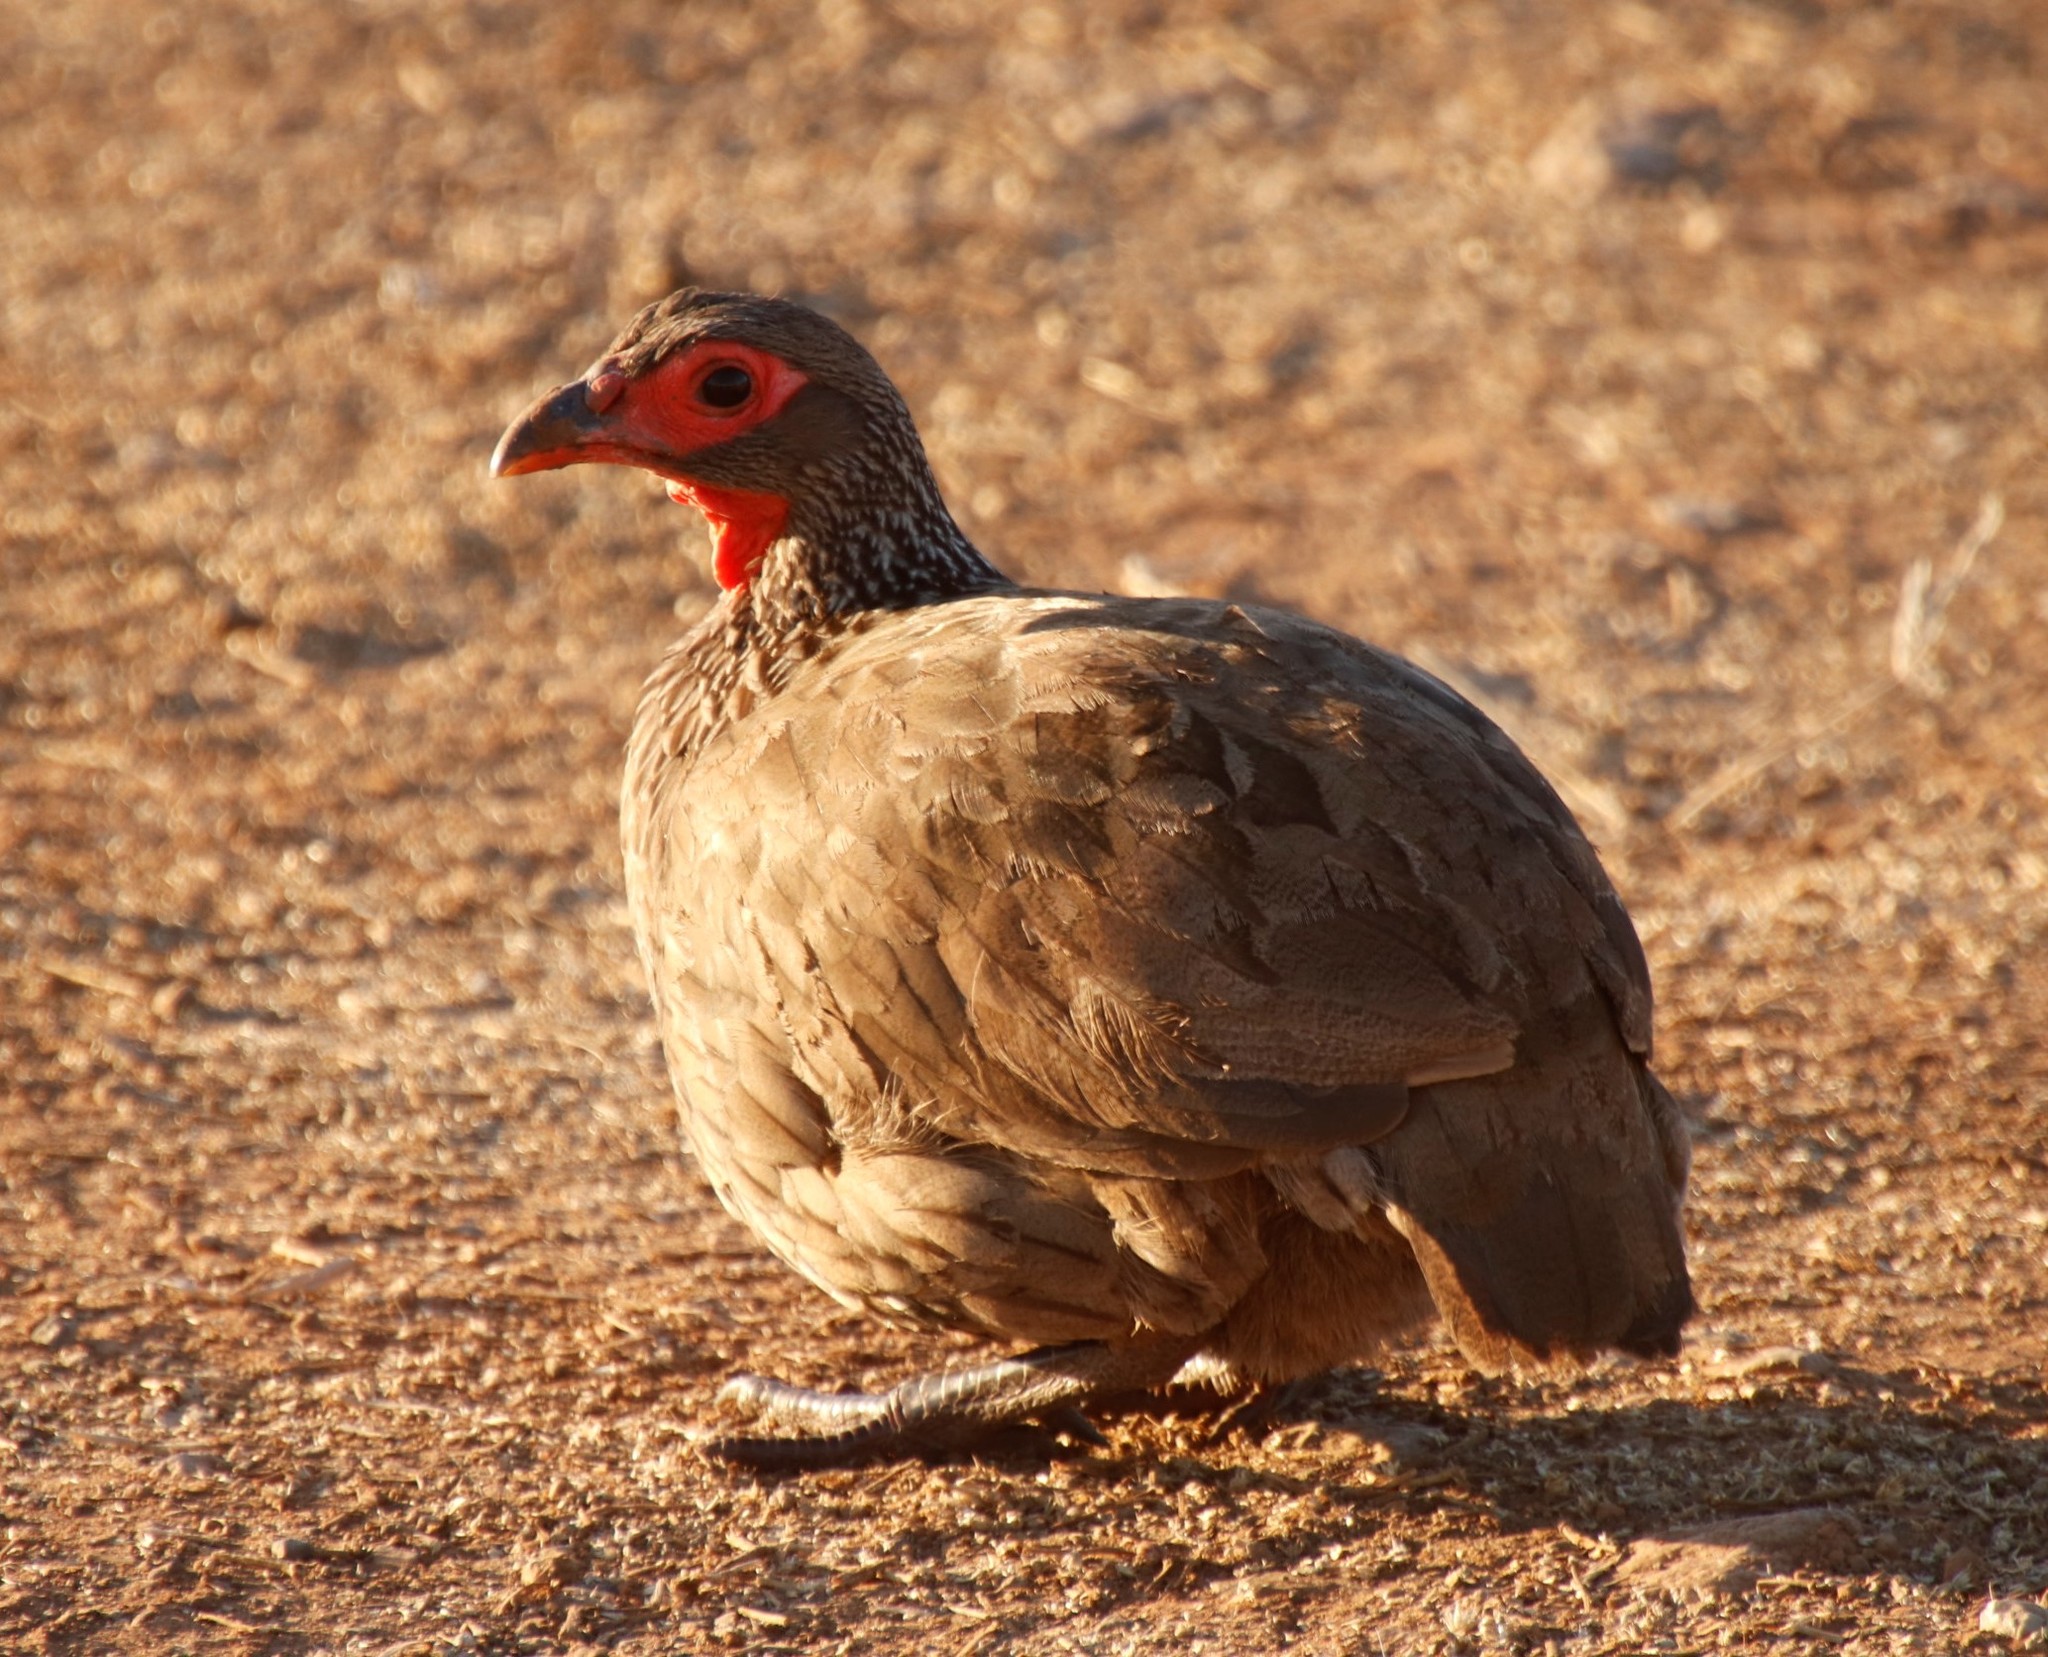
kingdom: Animalia
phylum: Chordata
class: Aves
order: Galliformes
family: Phasianidae
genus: Pternistis
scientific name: Pternistis swainsonii
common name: Swainson's spurfowl
